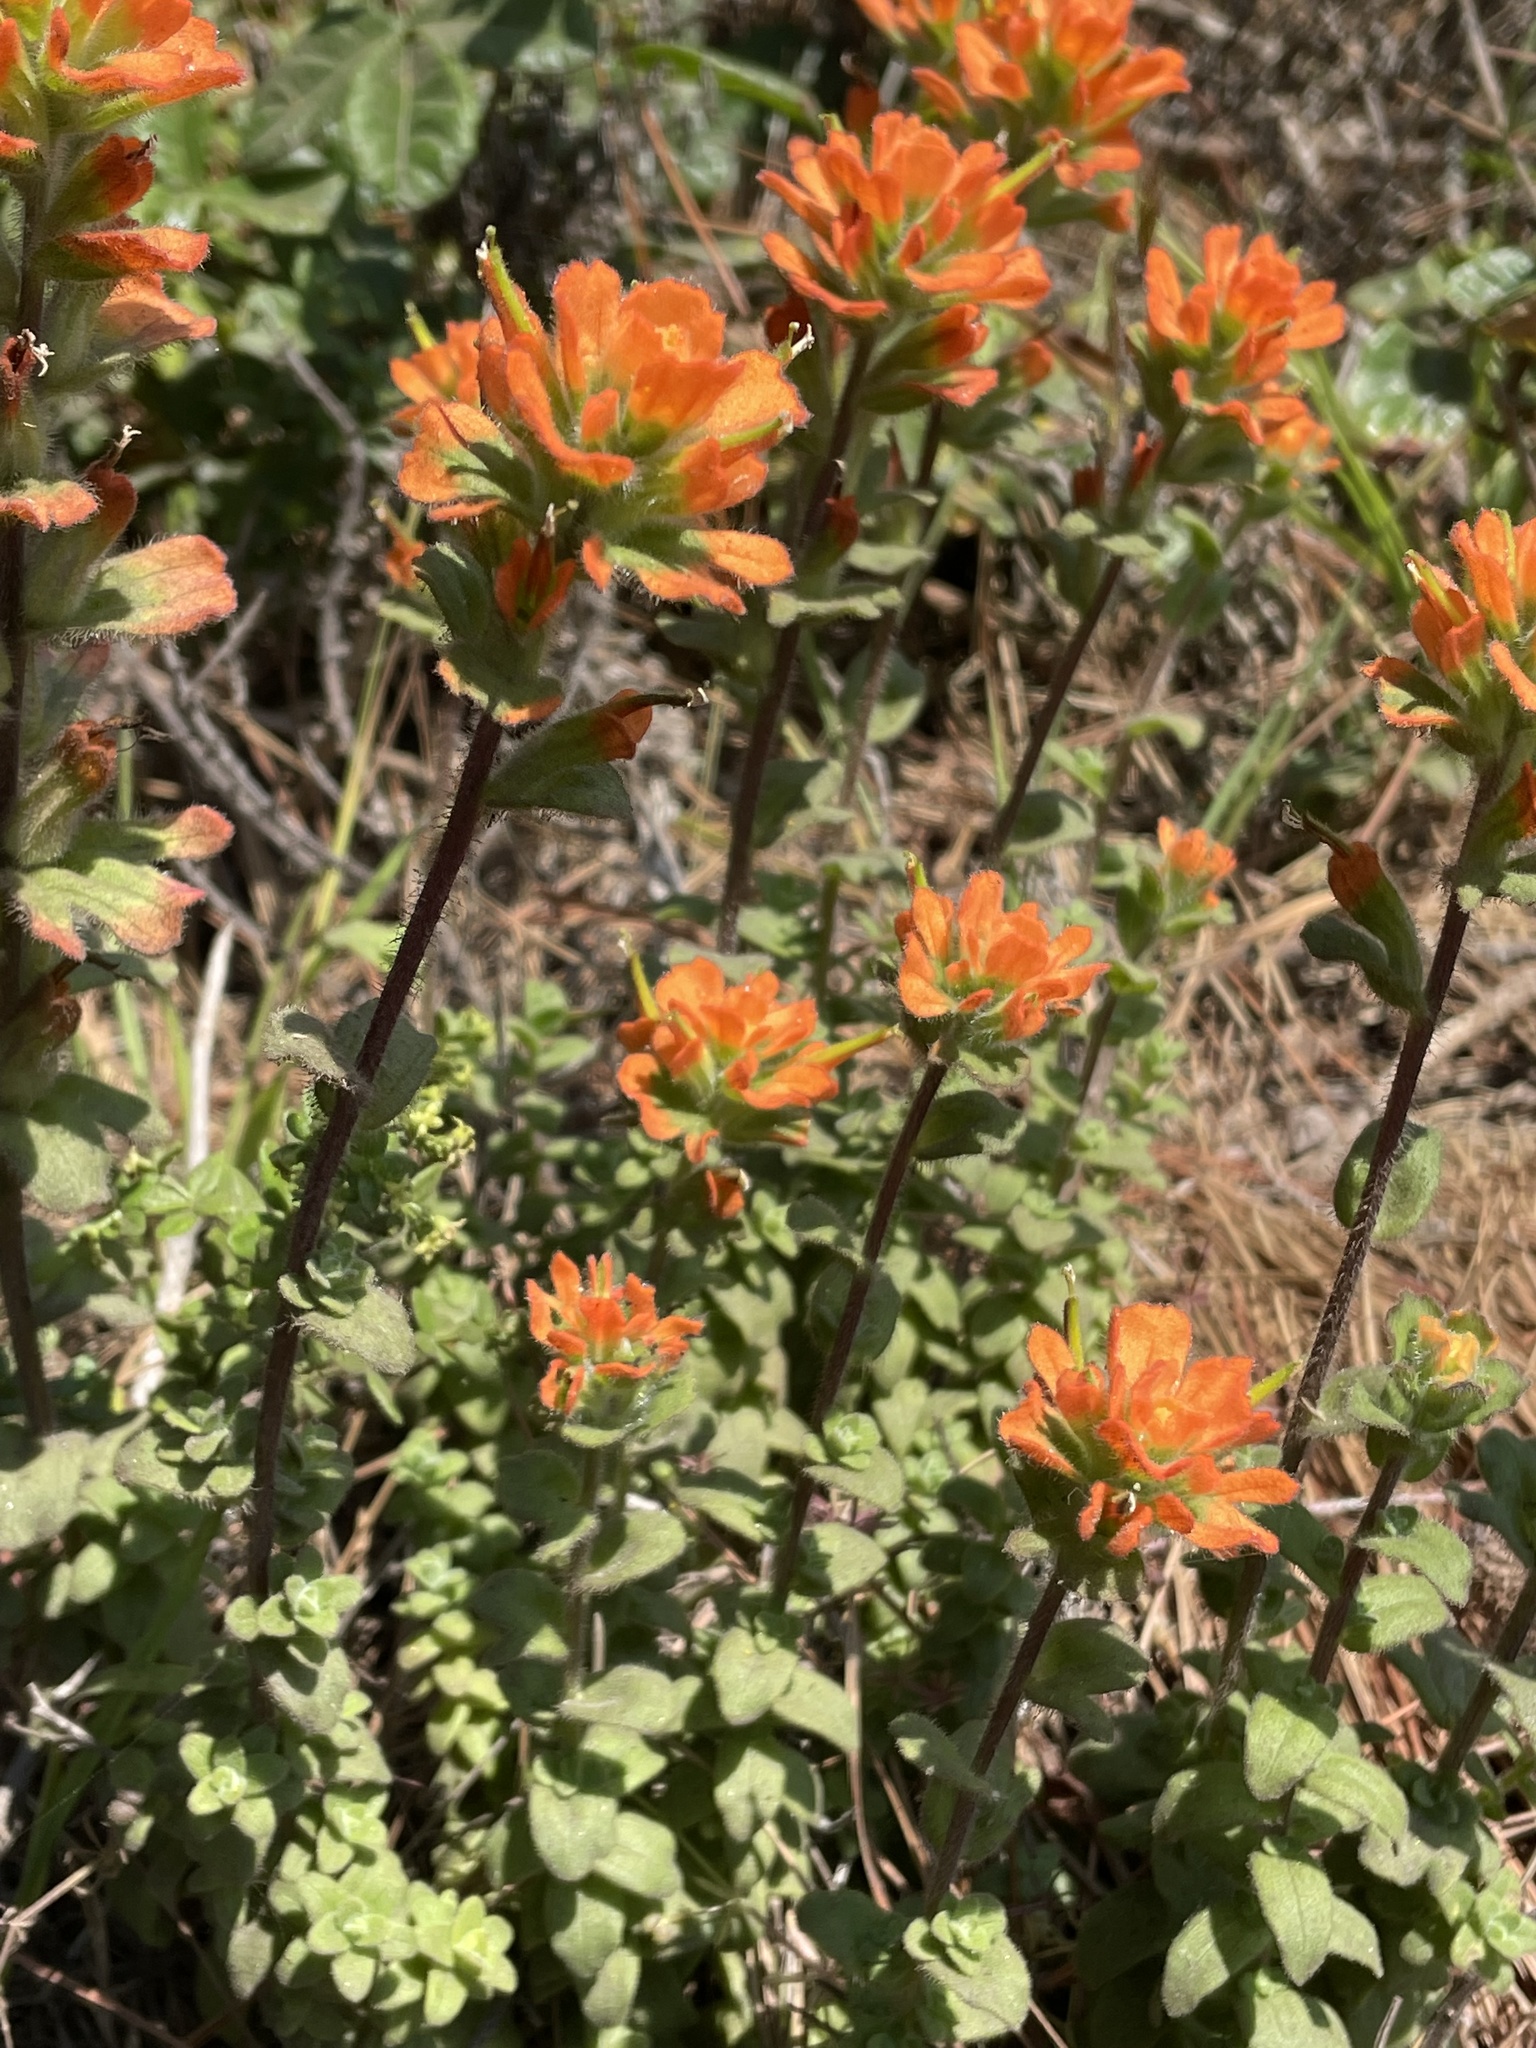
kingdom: Plantae
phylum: Tracheophyta
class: Magnoliopsida
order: Lamiales
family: Orobanchaceae
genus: Castilleja
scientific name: Castilleja latifolia
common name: Monterey indian paintbrush
